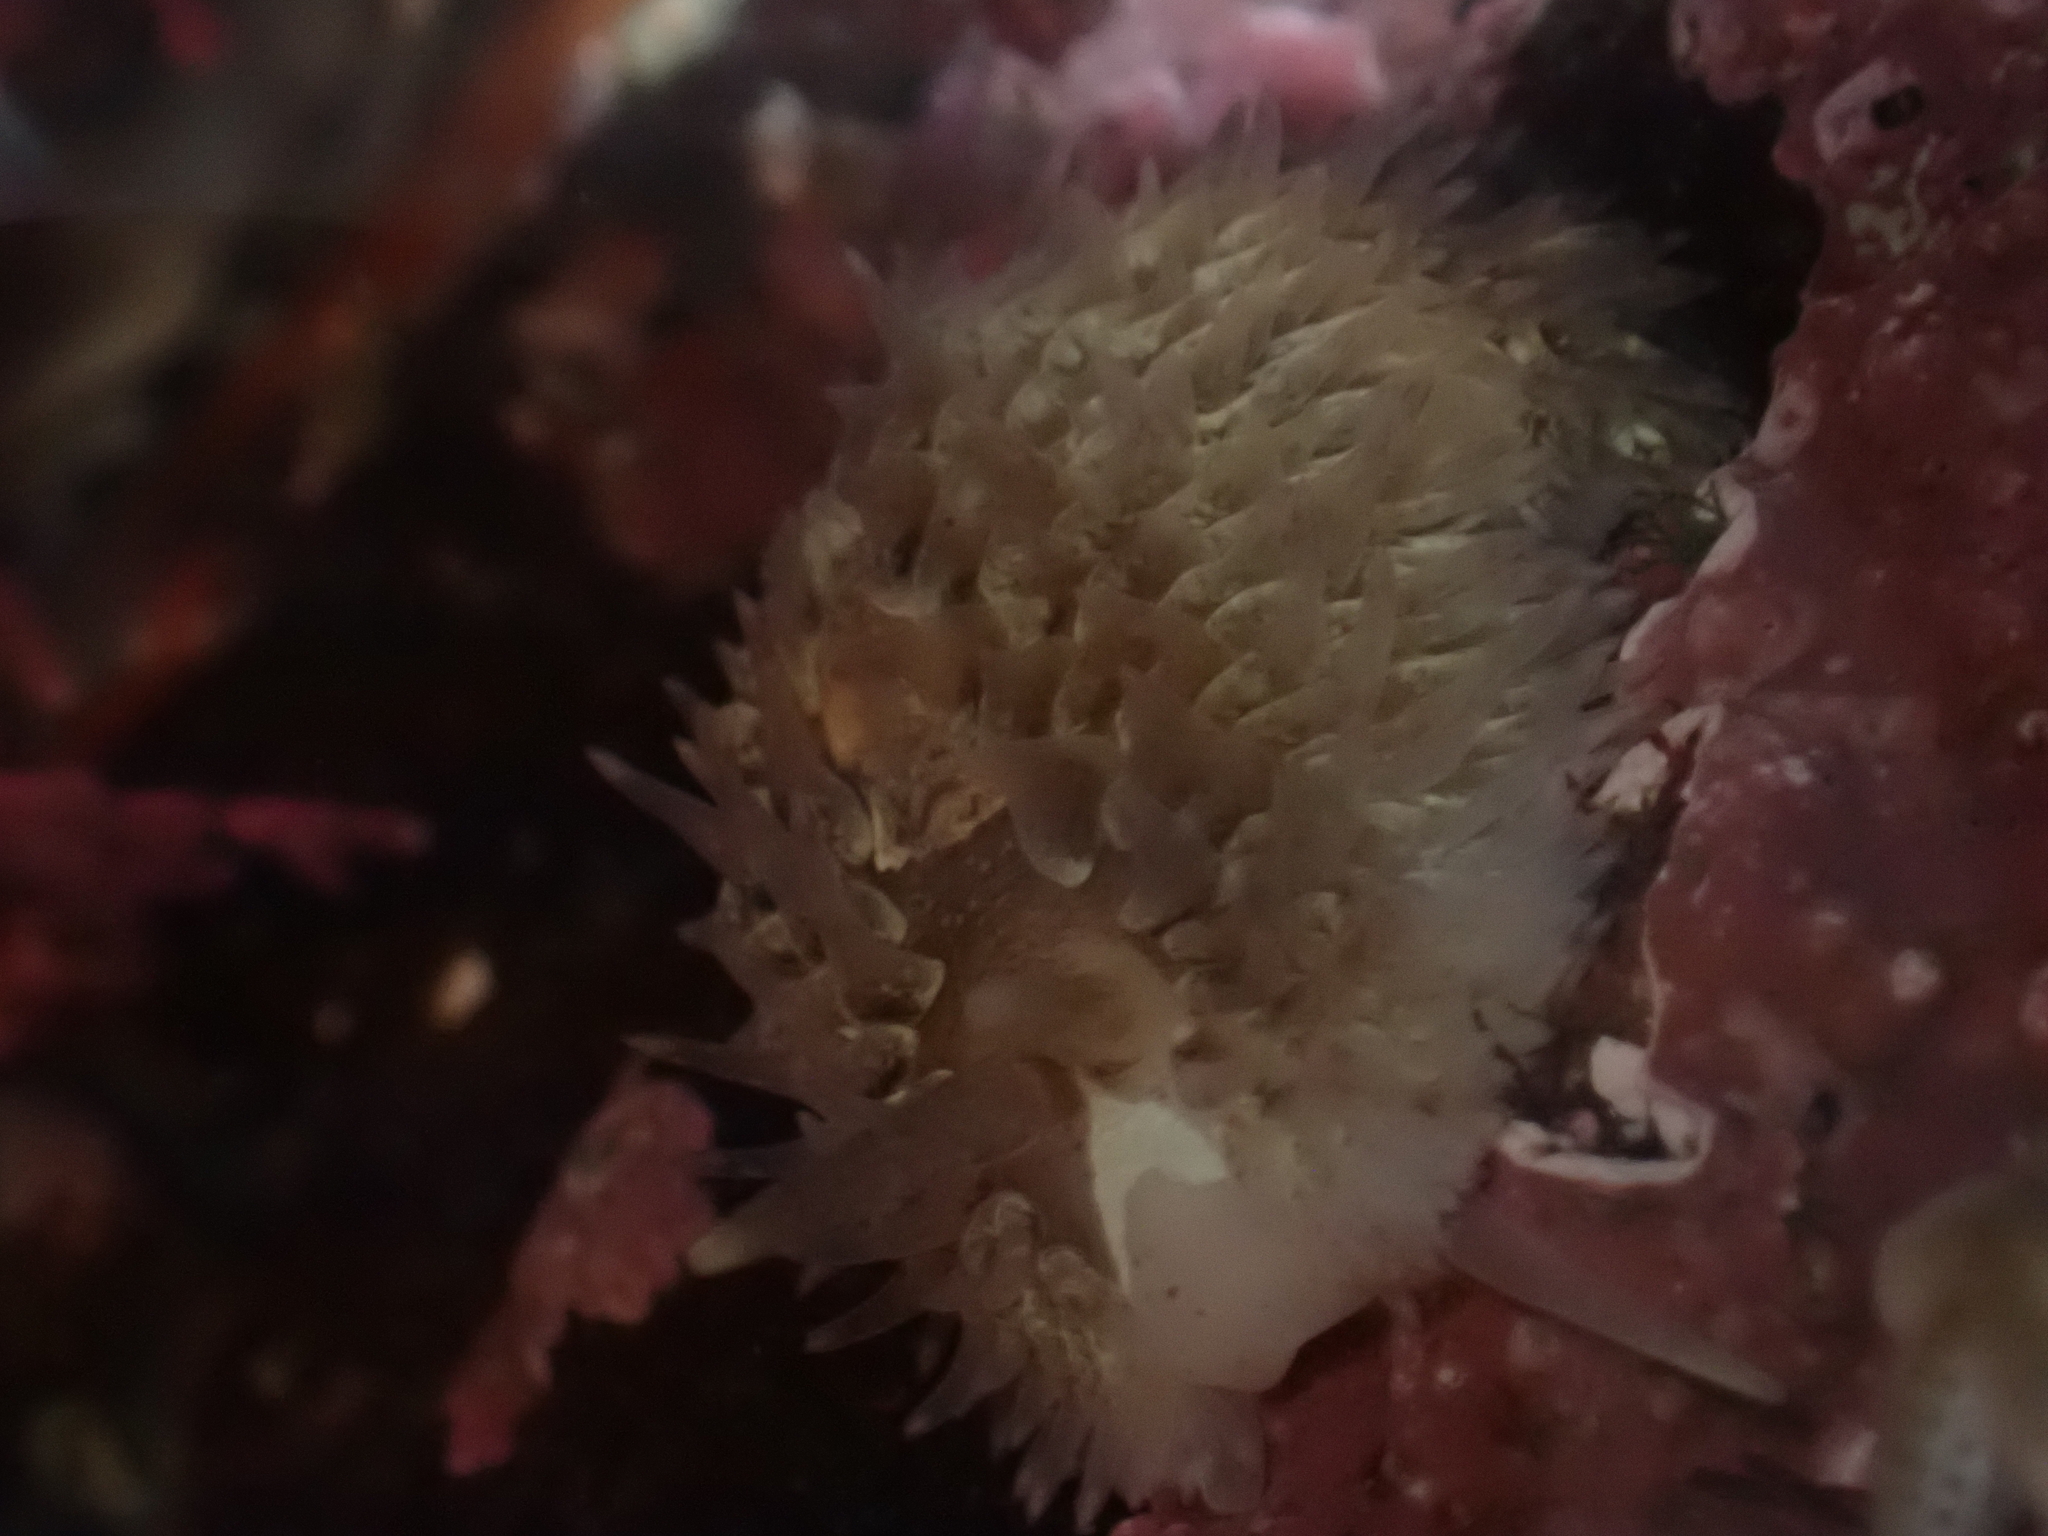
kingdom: Animalia
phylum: Mollusca
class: Gastropoda
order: Nudibranchia
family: Aeolidiidae
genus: Aeolidia
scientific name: Aeolidia loui
